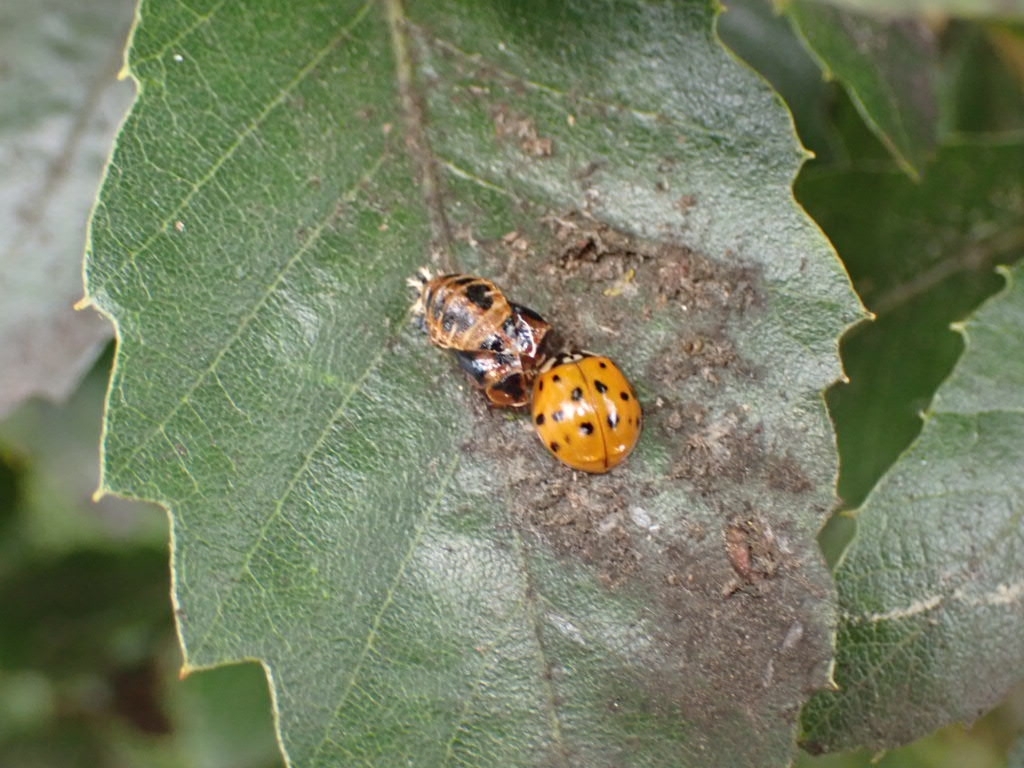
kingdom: Animalia
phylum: Arthropoda
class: Insecta
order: Coleoptera
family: Coccinellidae
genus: Harmonia
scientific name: Harmonia axyridis
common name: Harlequin ladybird
